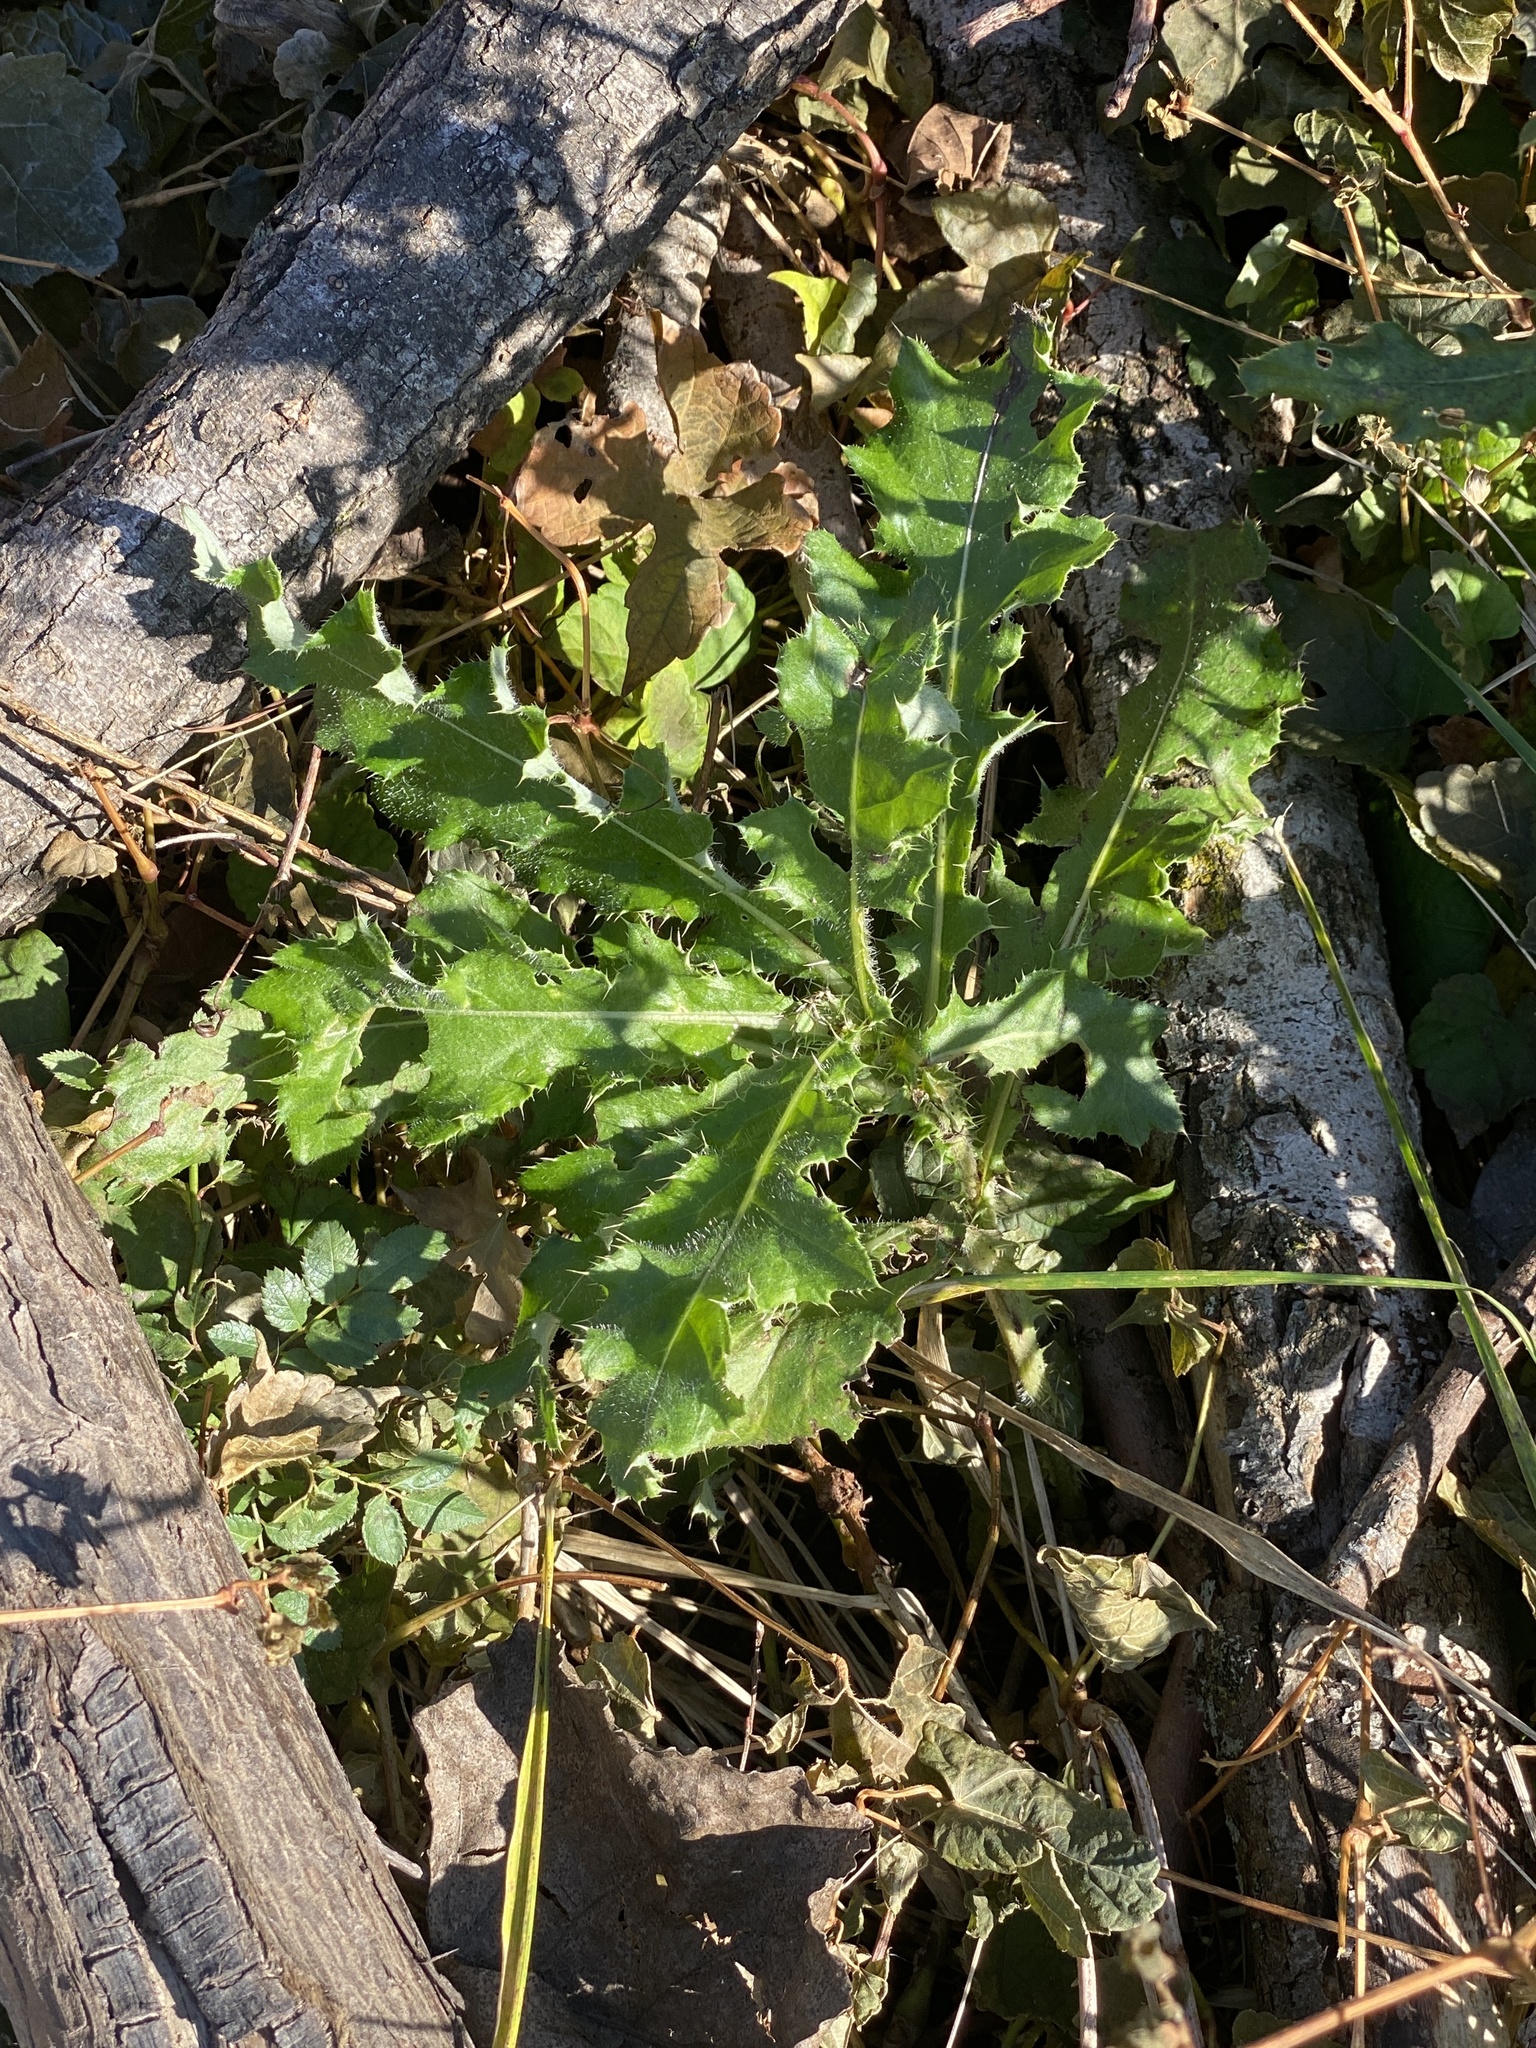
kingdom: Plantae
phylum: Tracheophyta
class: Magnoliopsida
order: Asterales
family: Asteraceae
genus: Cirsium
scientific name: Cirsium arvense
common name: Creeping thistle
